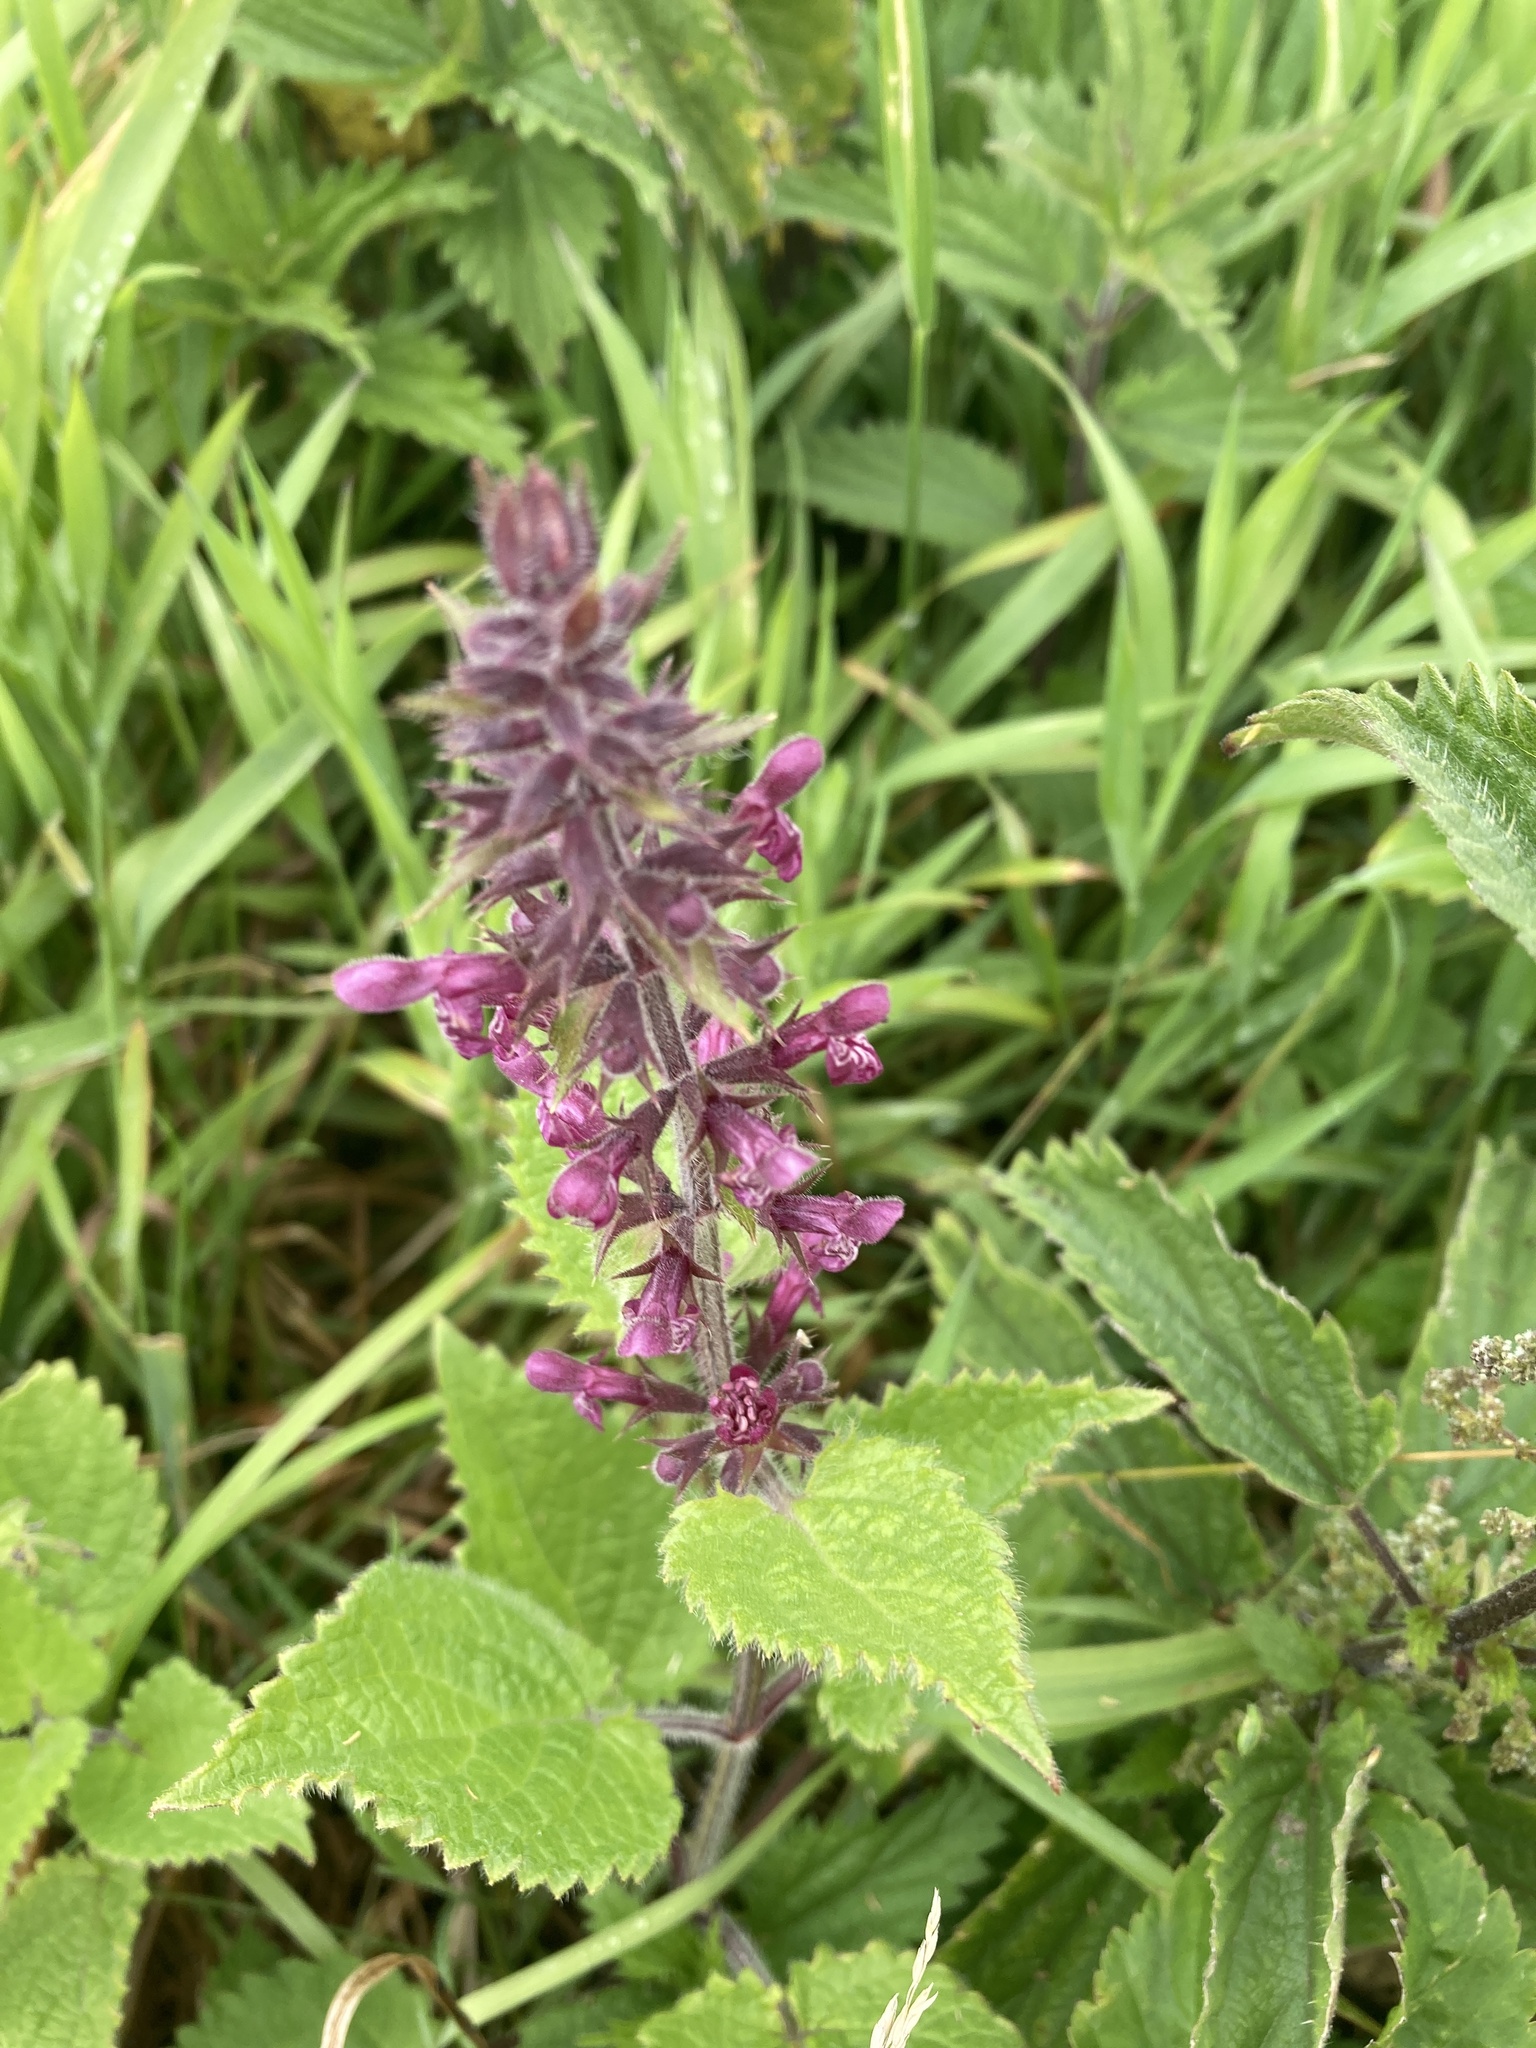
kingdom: Plantae
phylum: Tracheophyta
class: Magnoliopsida
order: Lamiales
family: Lamiaceae
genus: Stachys
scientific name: Stachys sylvatica
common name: Hedge woundwort
